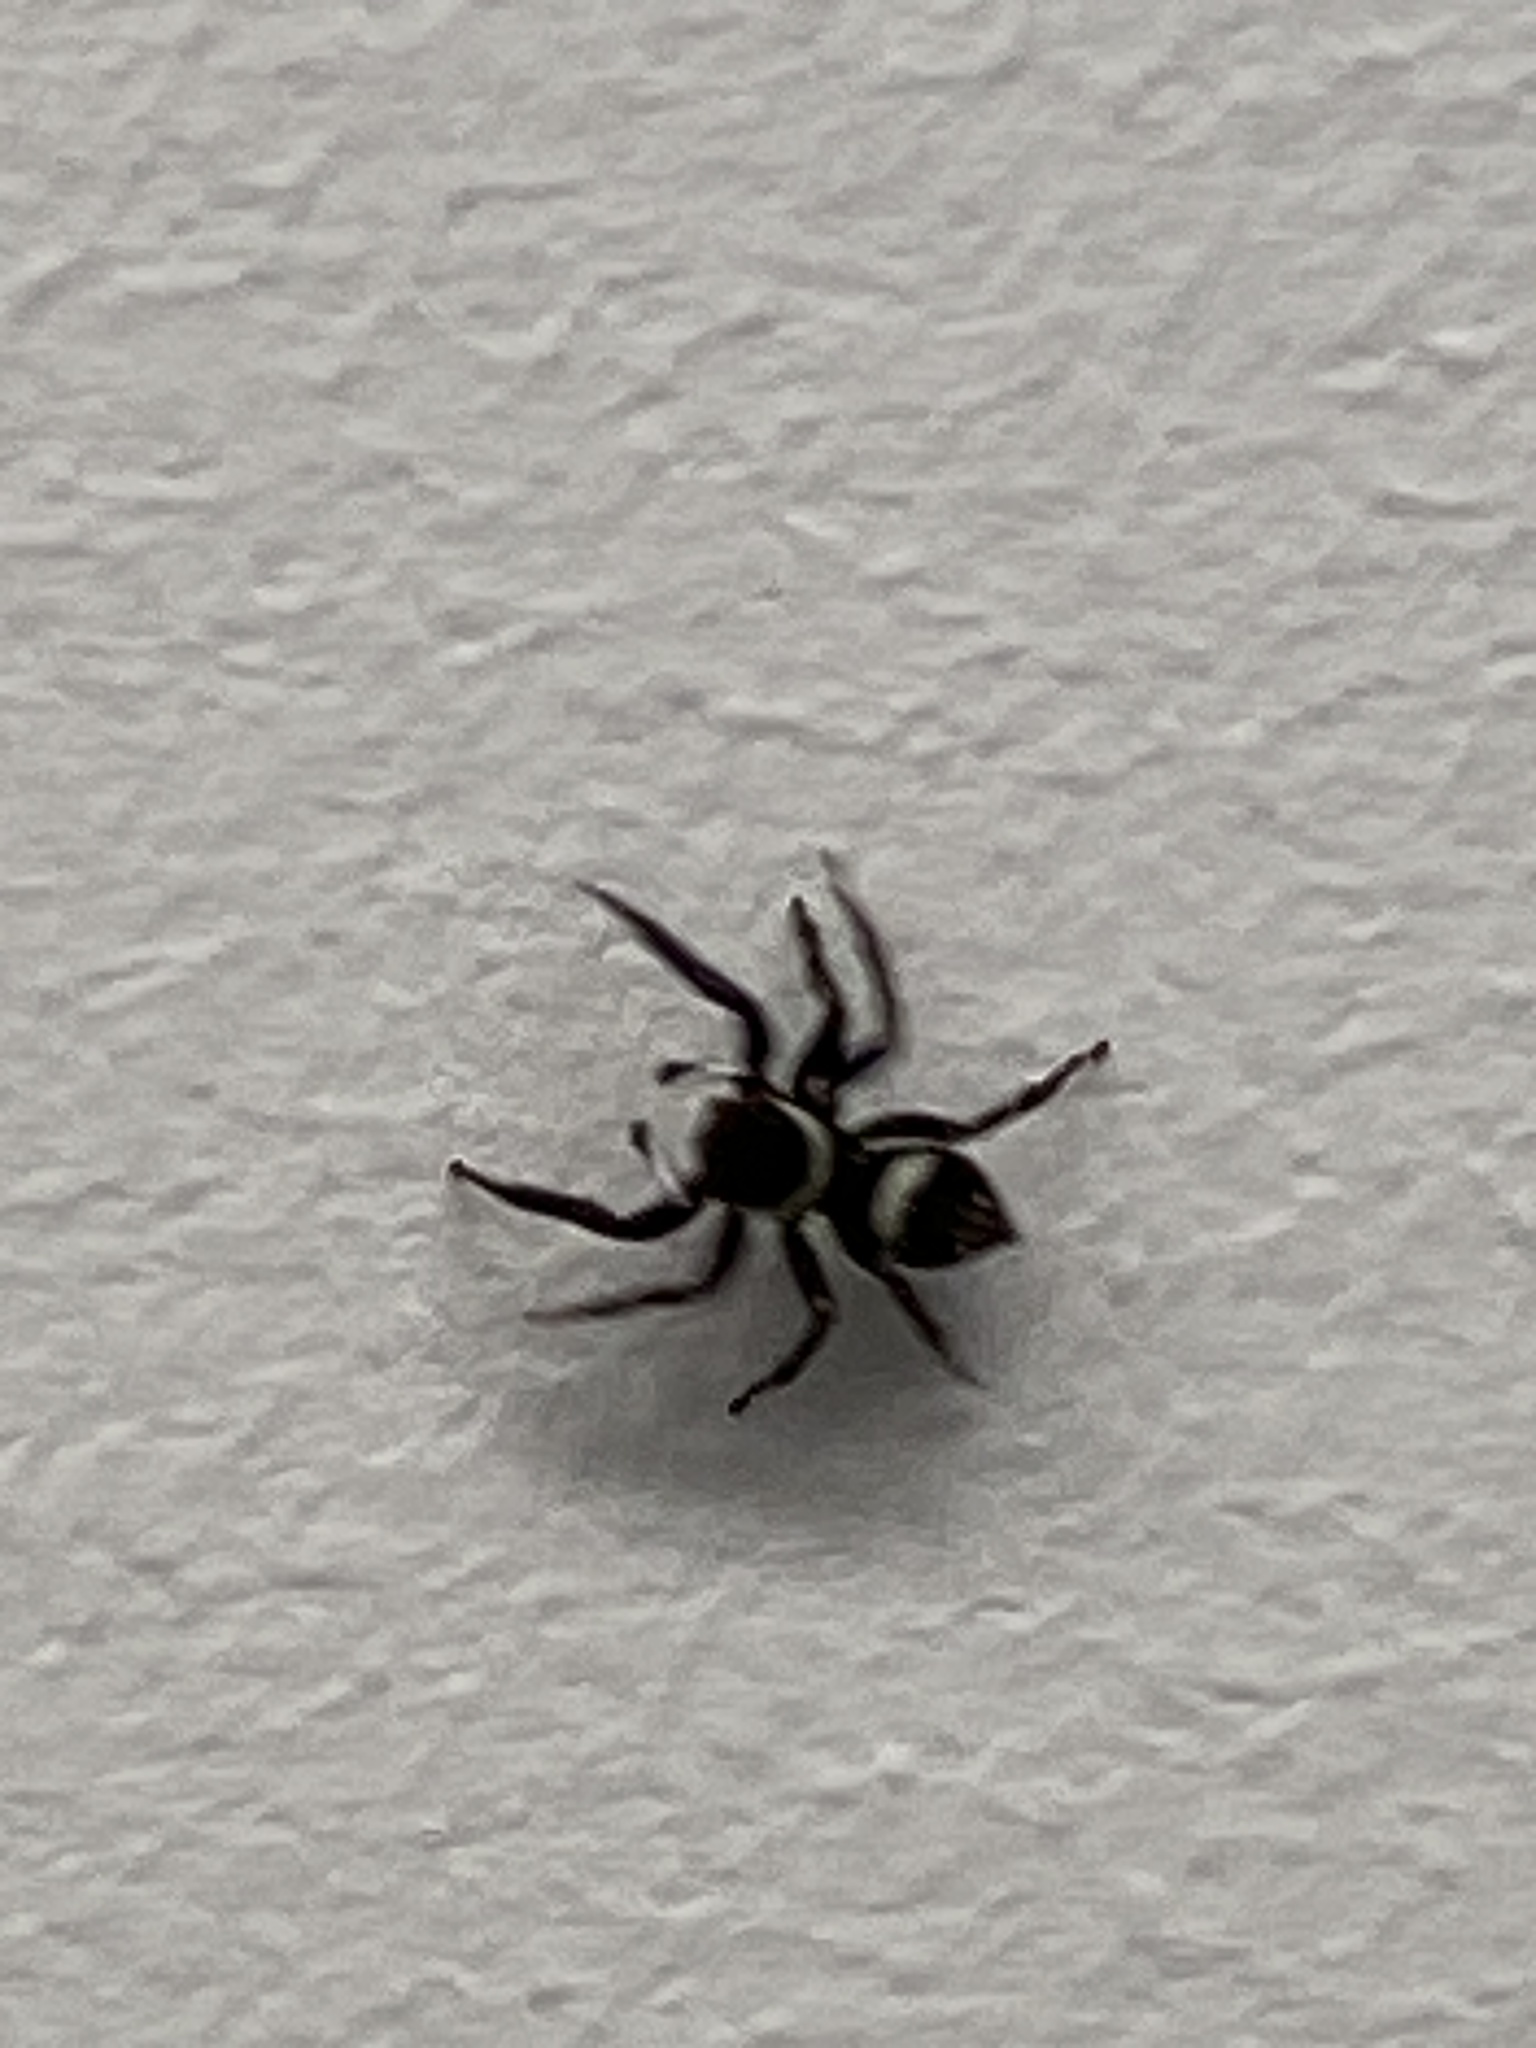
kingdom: Animalia
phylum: Arthropoda
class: Arachnida
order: Araneae
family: Salticidae
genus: Hasarius
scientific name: Hasarius adansoni
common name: Jumping spider
